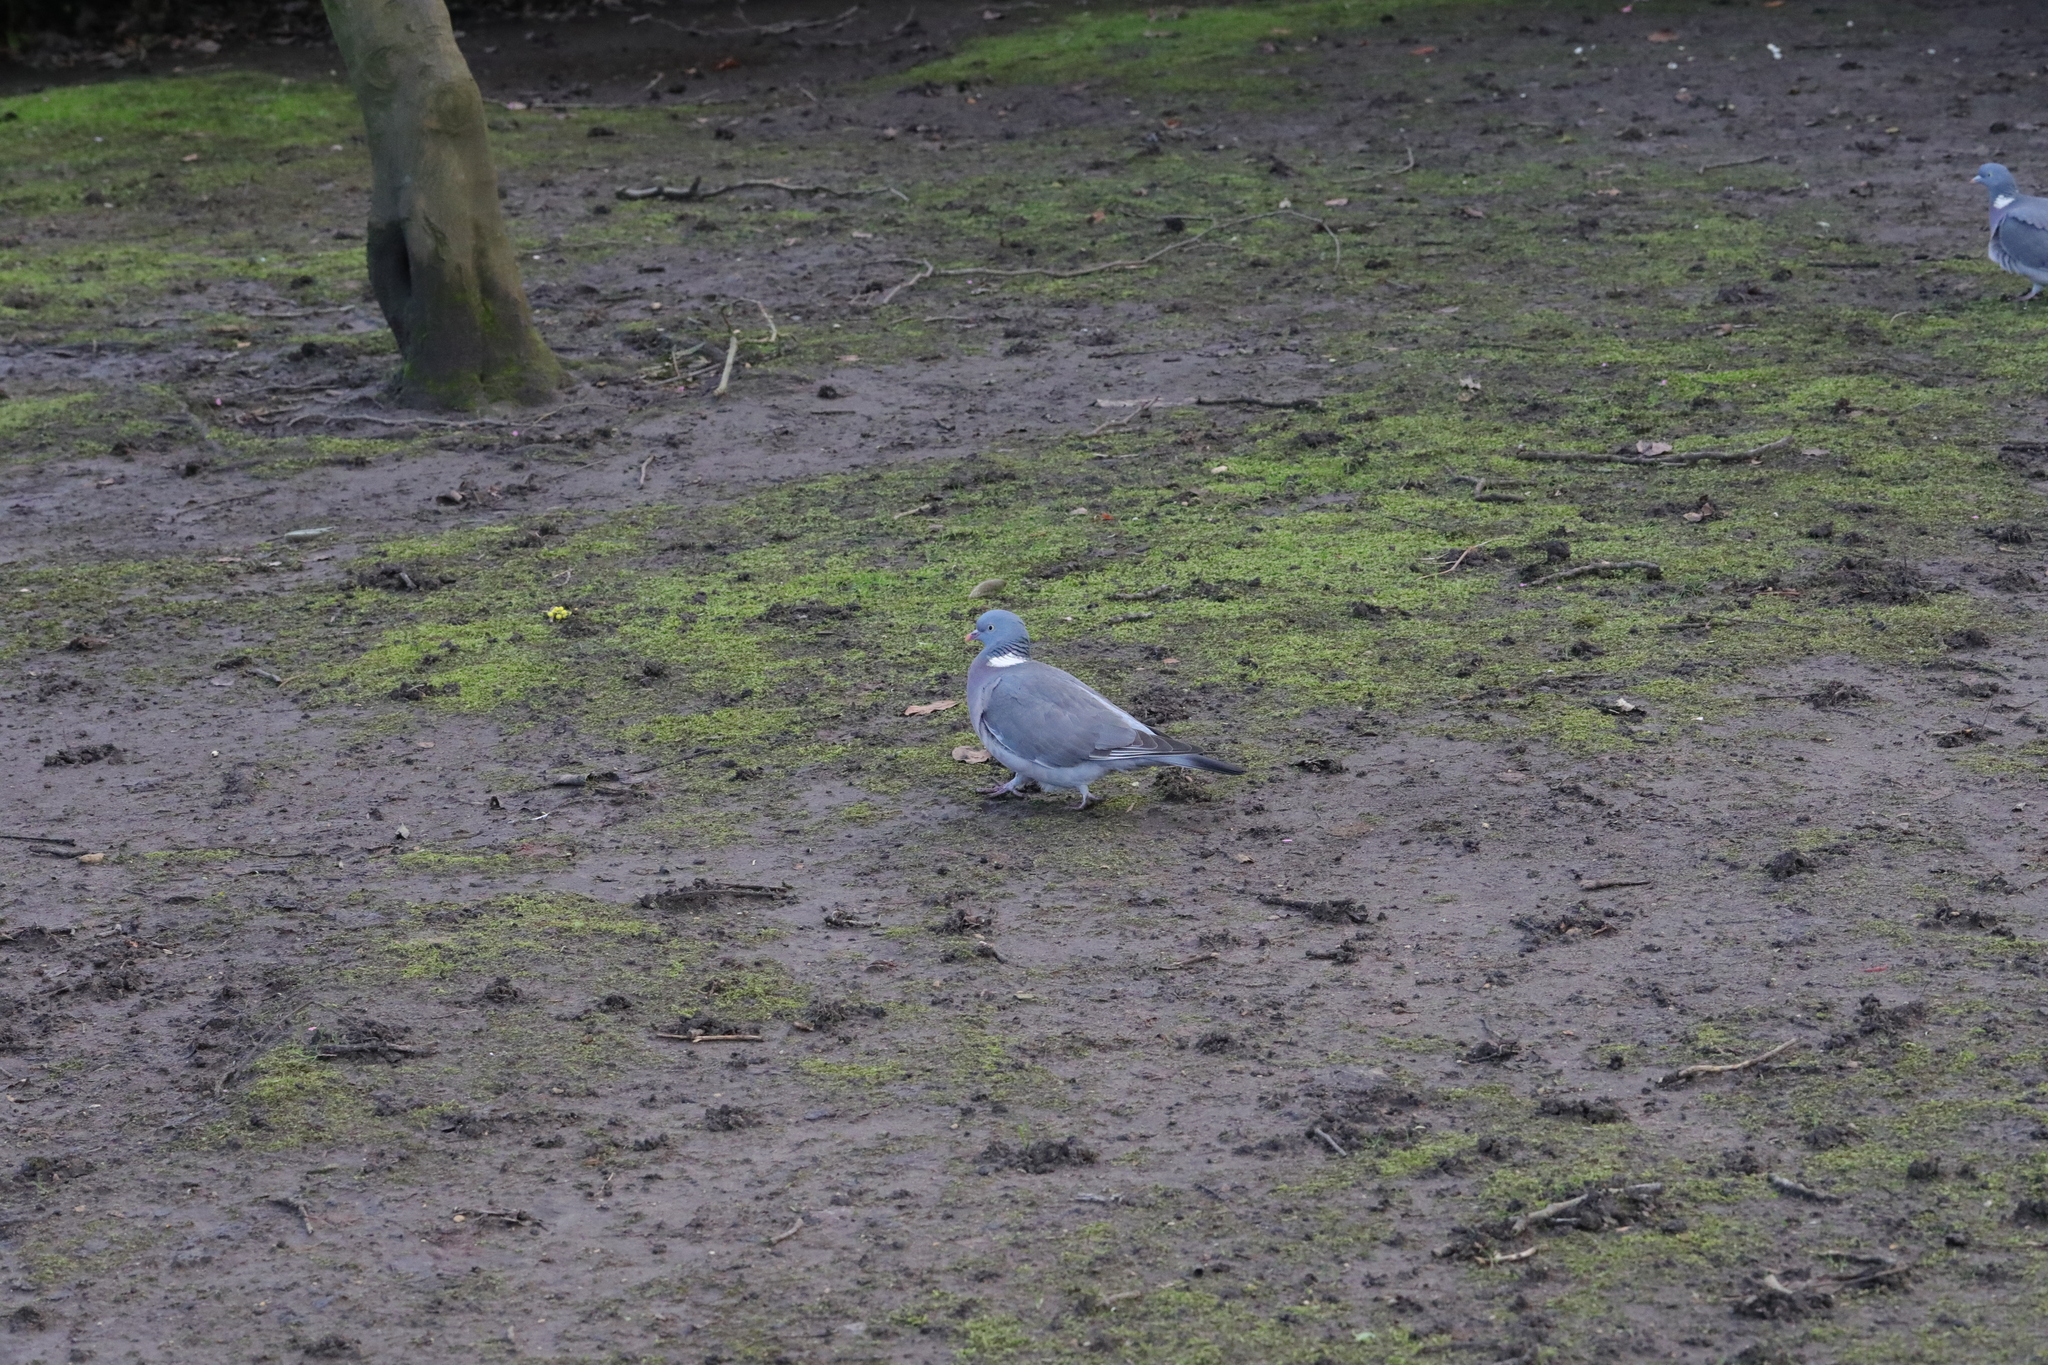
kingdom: Animalia
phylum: Chordata
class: Aves
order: Columbiformes
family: Columbidae
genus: Columba
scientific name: Columba palumbus
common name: Common wood pigeon
